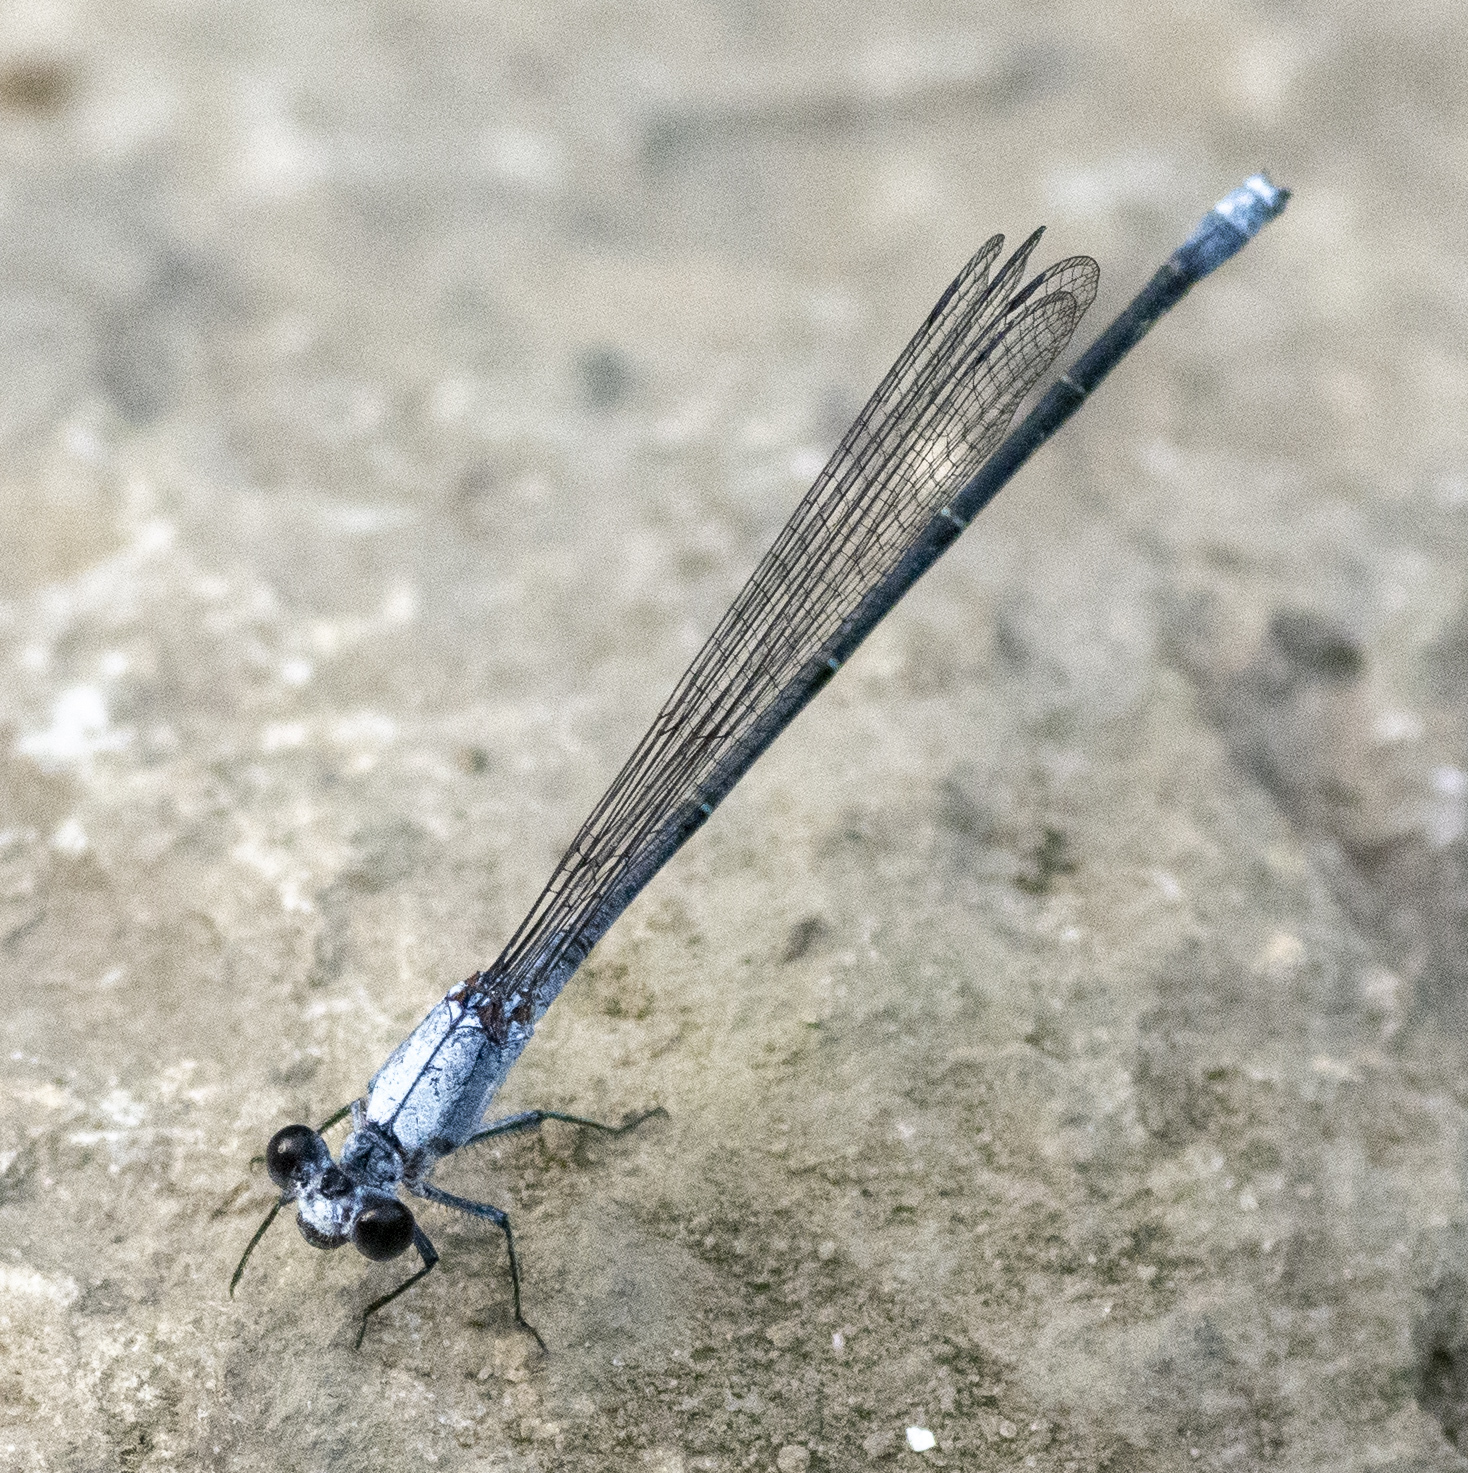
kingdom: Animalia
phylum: Arthropoda
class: Insecta
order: Odonata
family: Coenagrionidae
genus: Argia
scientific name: Argia moesta
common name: Powdered dancer
